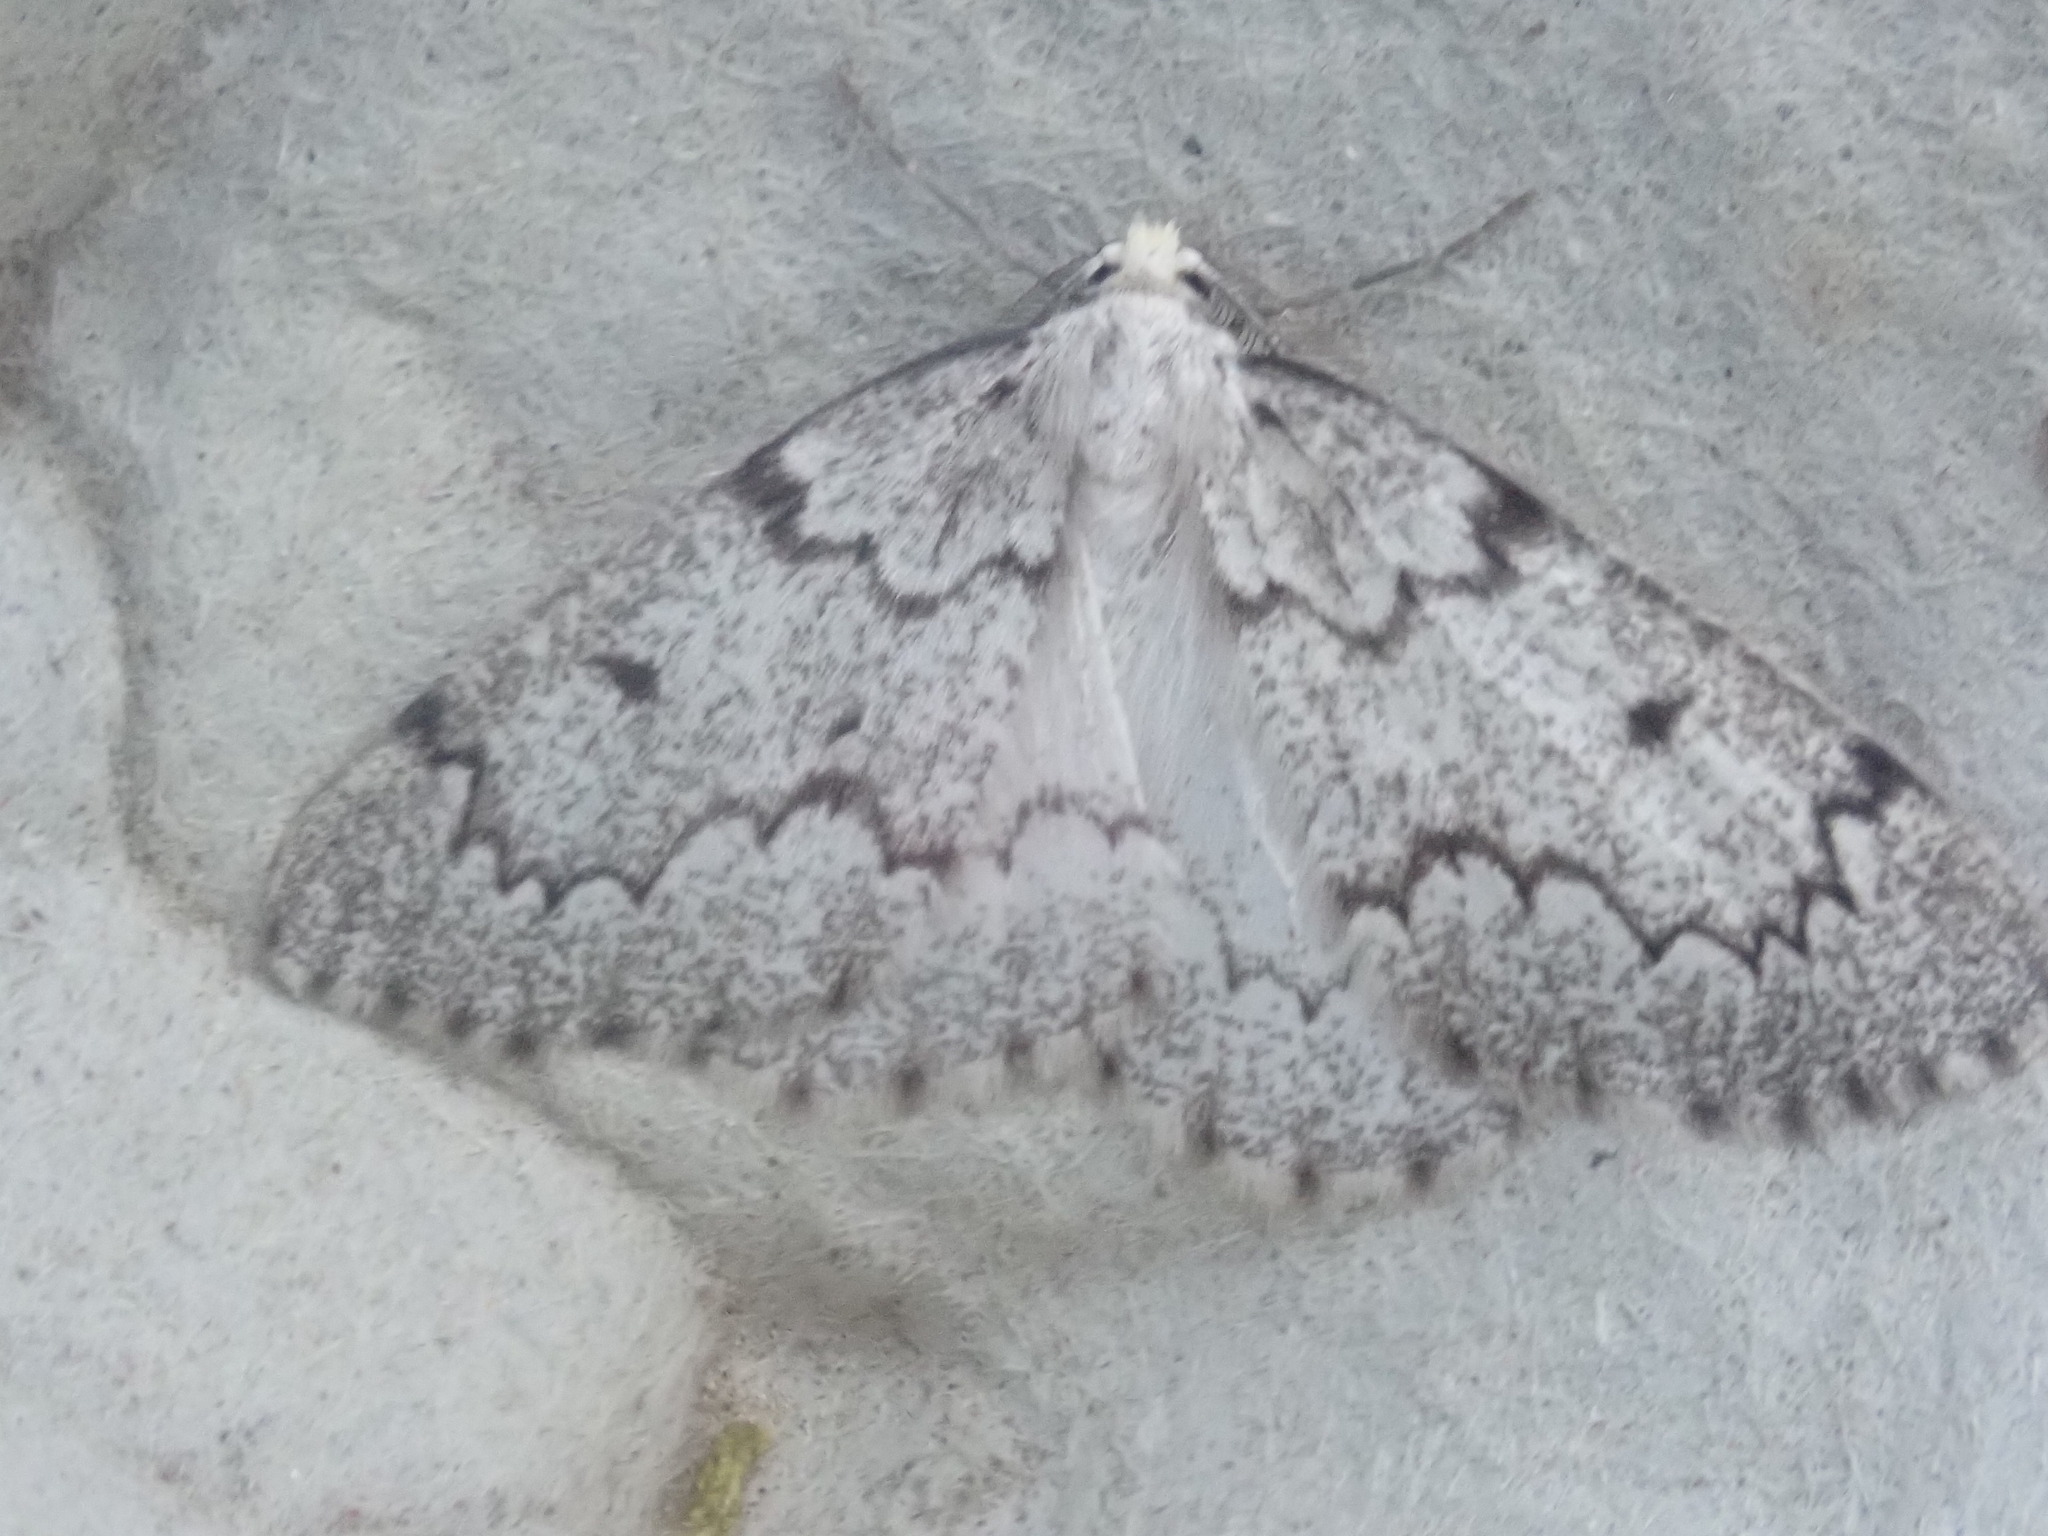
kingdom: Animalia
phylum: Arthropoda
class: Insecta
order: Lepidoptera
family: Geometridae
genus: Nepytia
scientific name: Nepytia canosaria
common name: False hemlock looper
